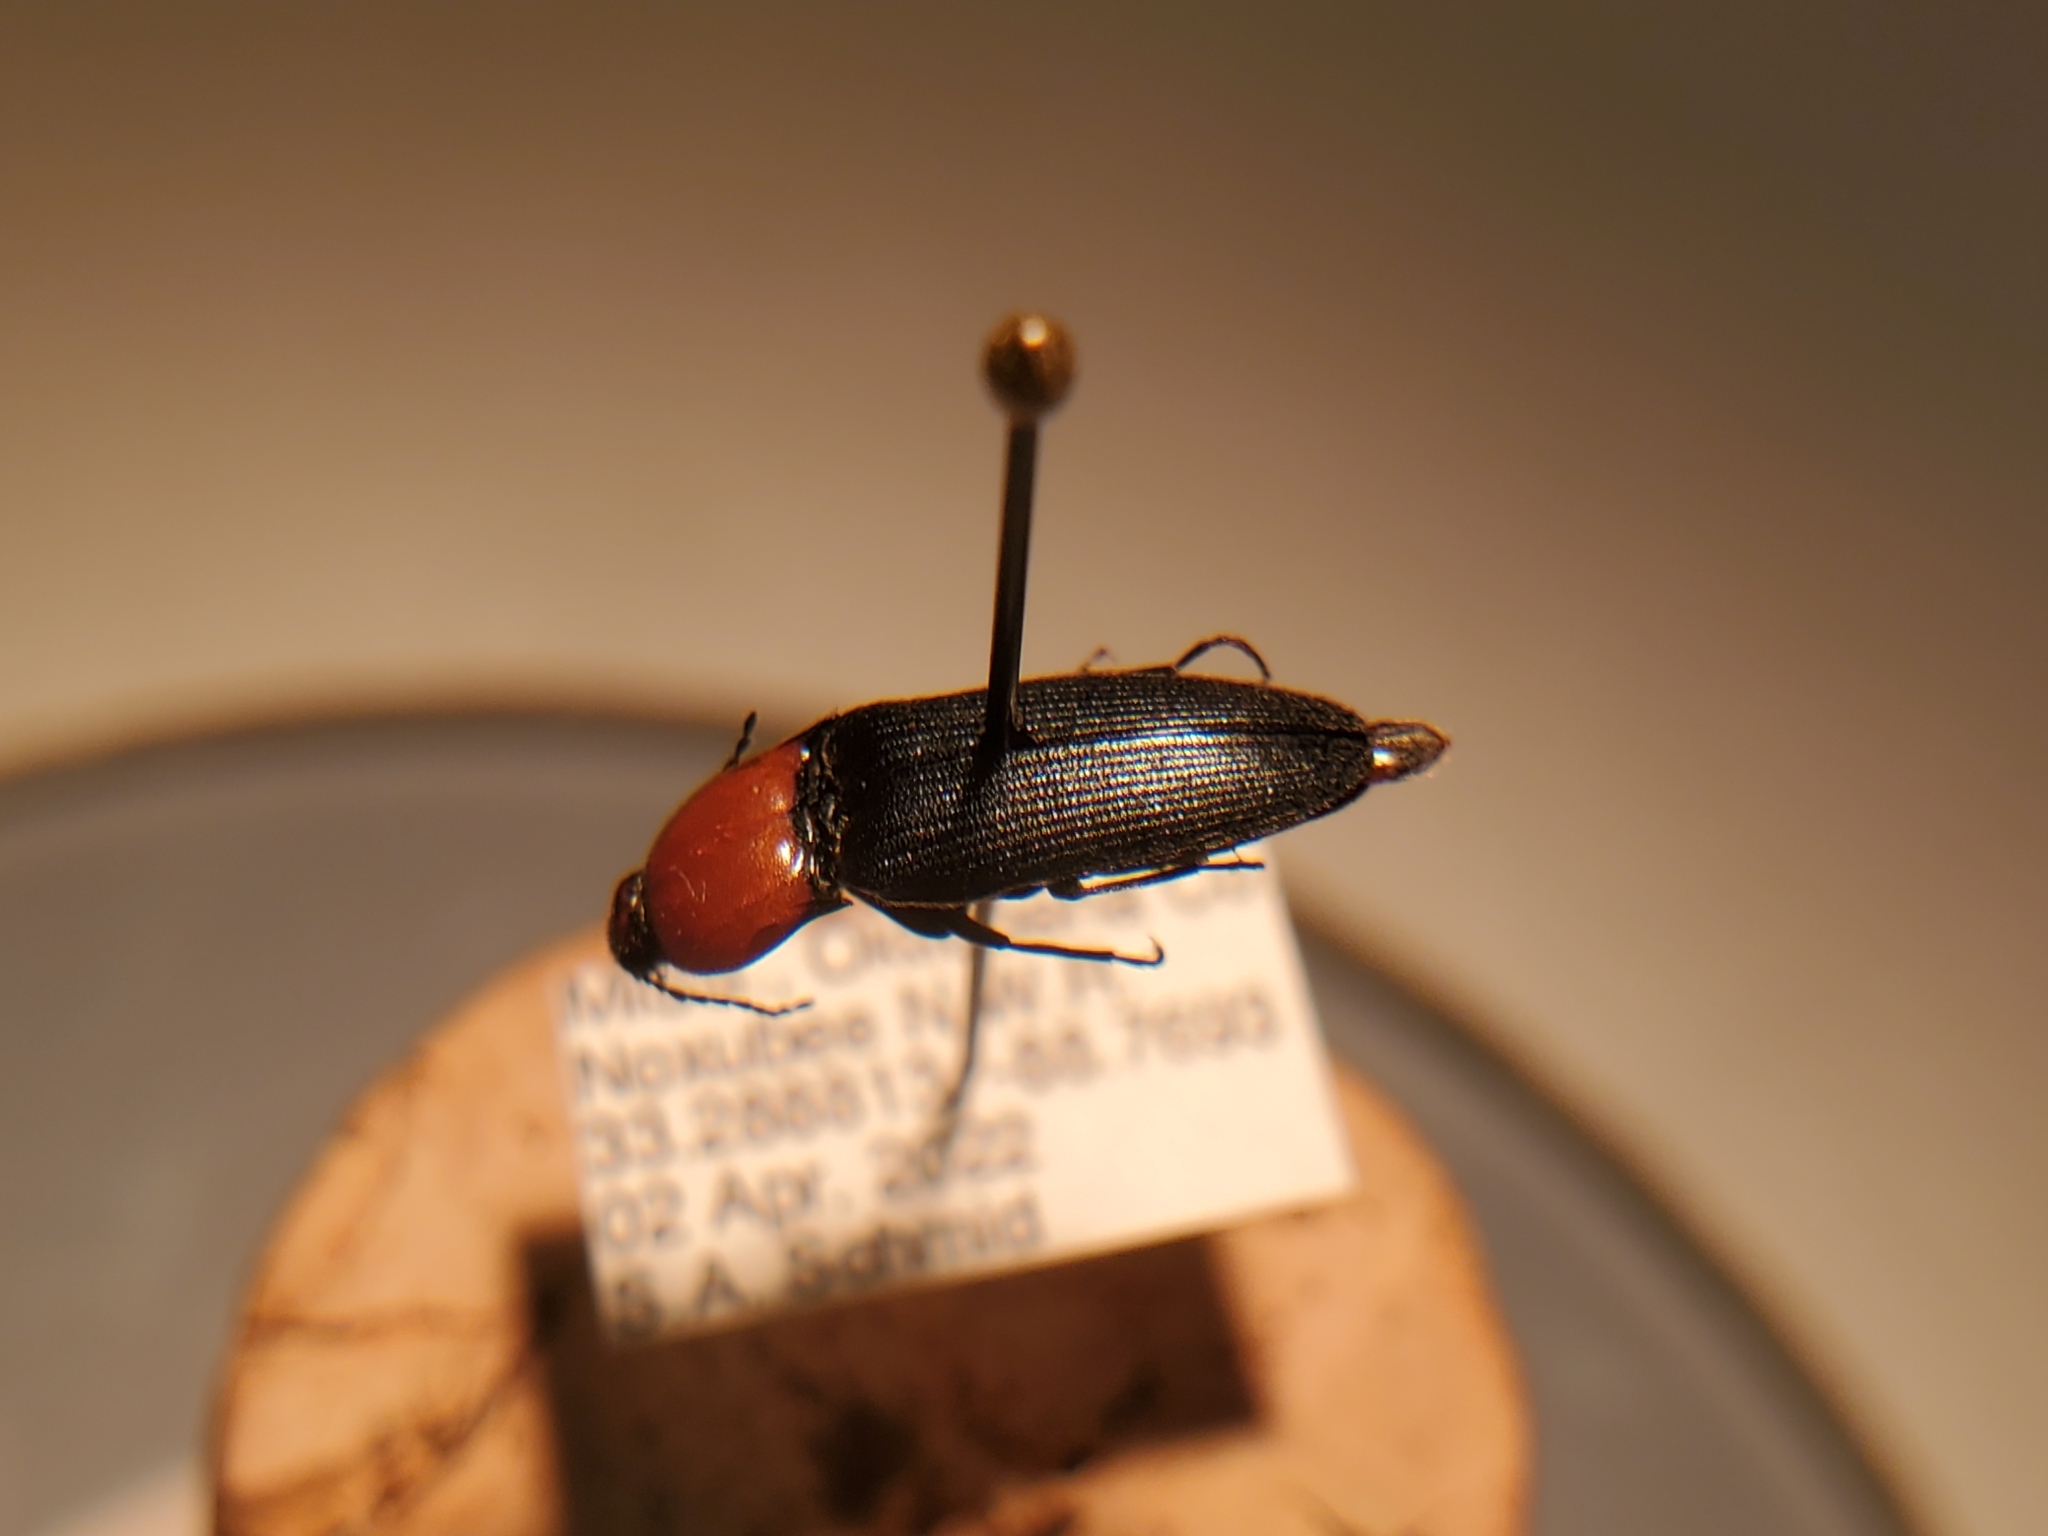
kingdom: Animalia
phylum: Arthropoda
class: Insecta
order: Coleoptera
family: Elateridae
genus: Ampedus
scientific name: Ampedus rubricollis
